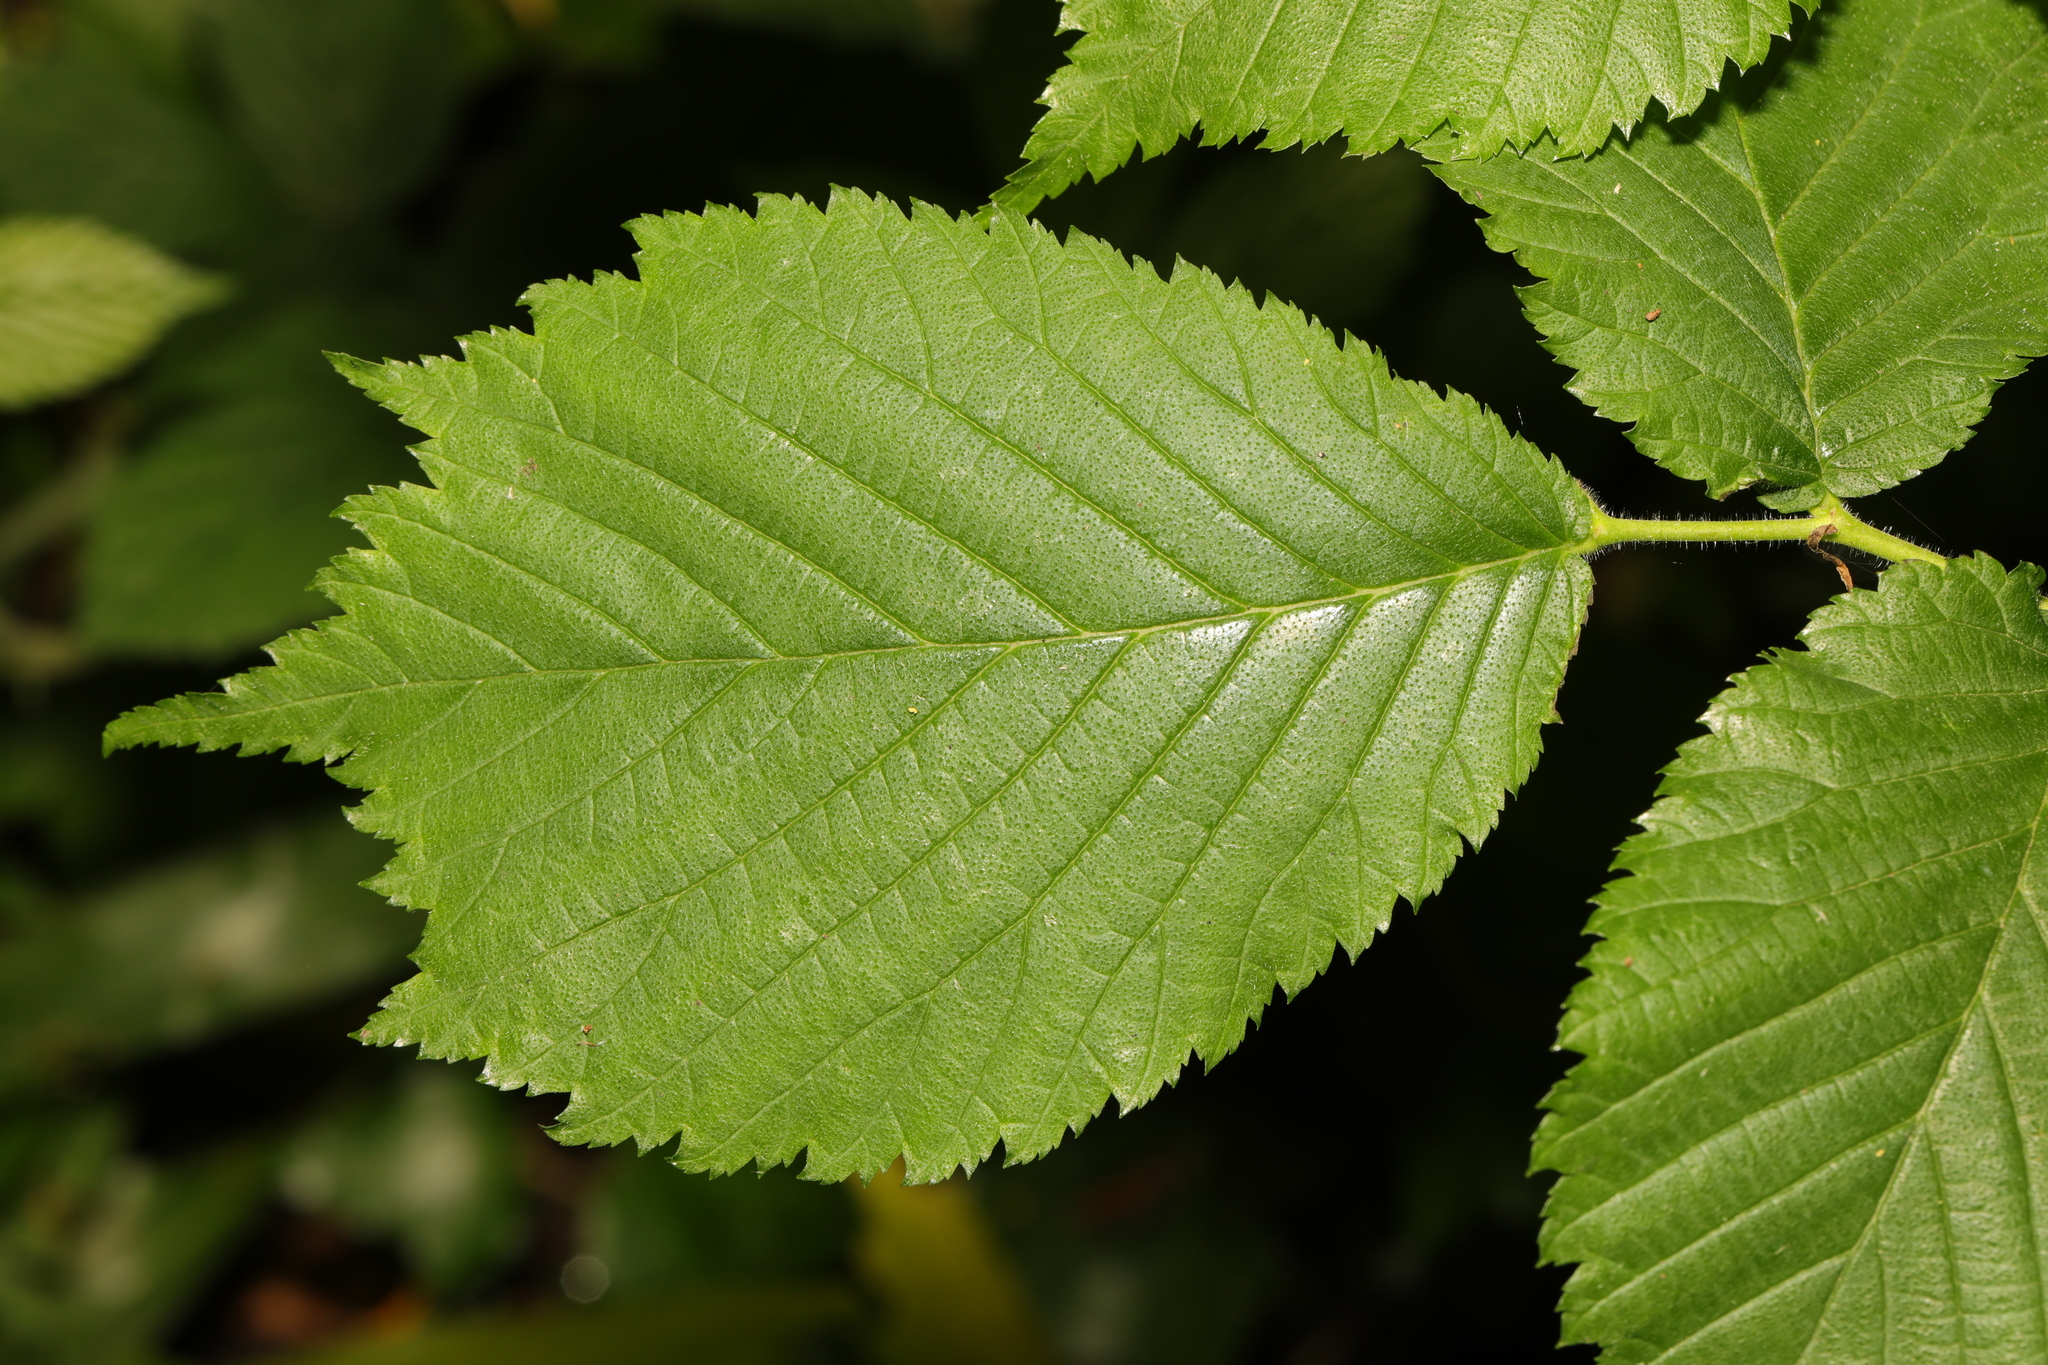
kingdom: Plantae
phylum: Tracheophyta
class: Magnoliopsida
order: Rosales
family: Ulmaceae
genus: Ulmus
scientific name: Ulmus glabra
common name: Wych elm
